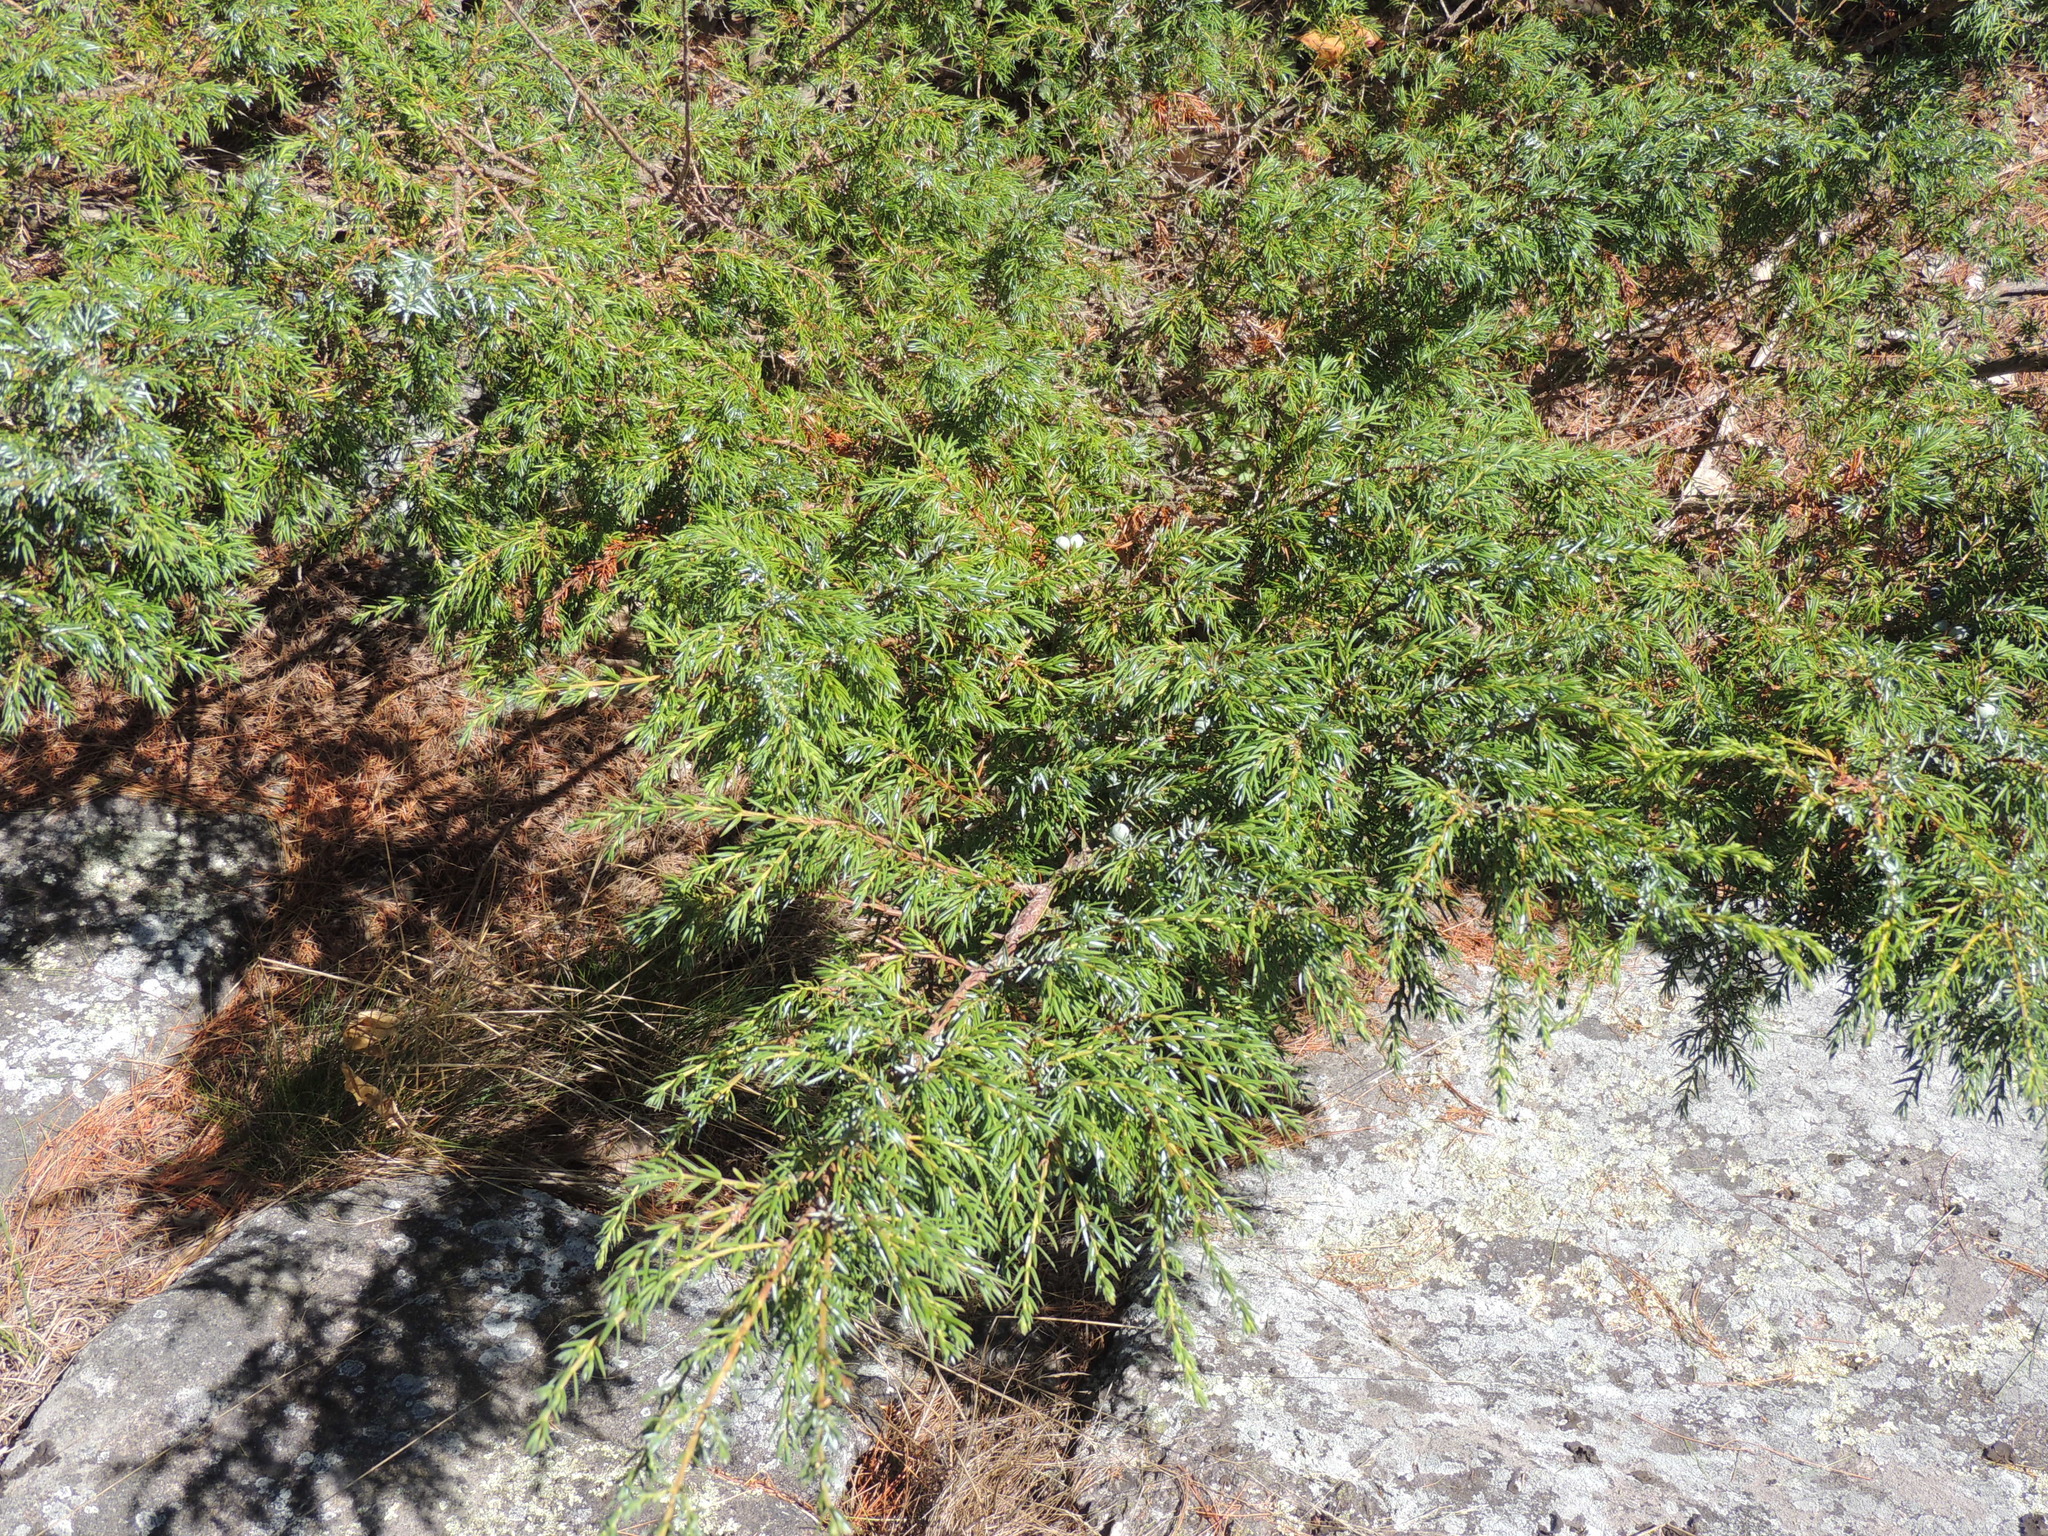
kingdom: Plantae
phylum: Tracheophyta
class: Pinopsida
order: Pinales
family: Cupressaceae
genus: Juniperus
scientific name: Juniperus communis
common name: Common juniper
